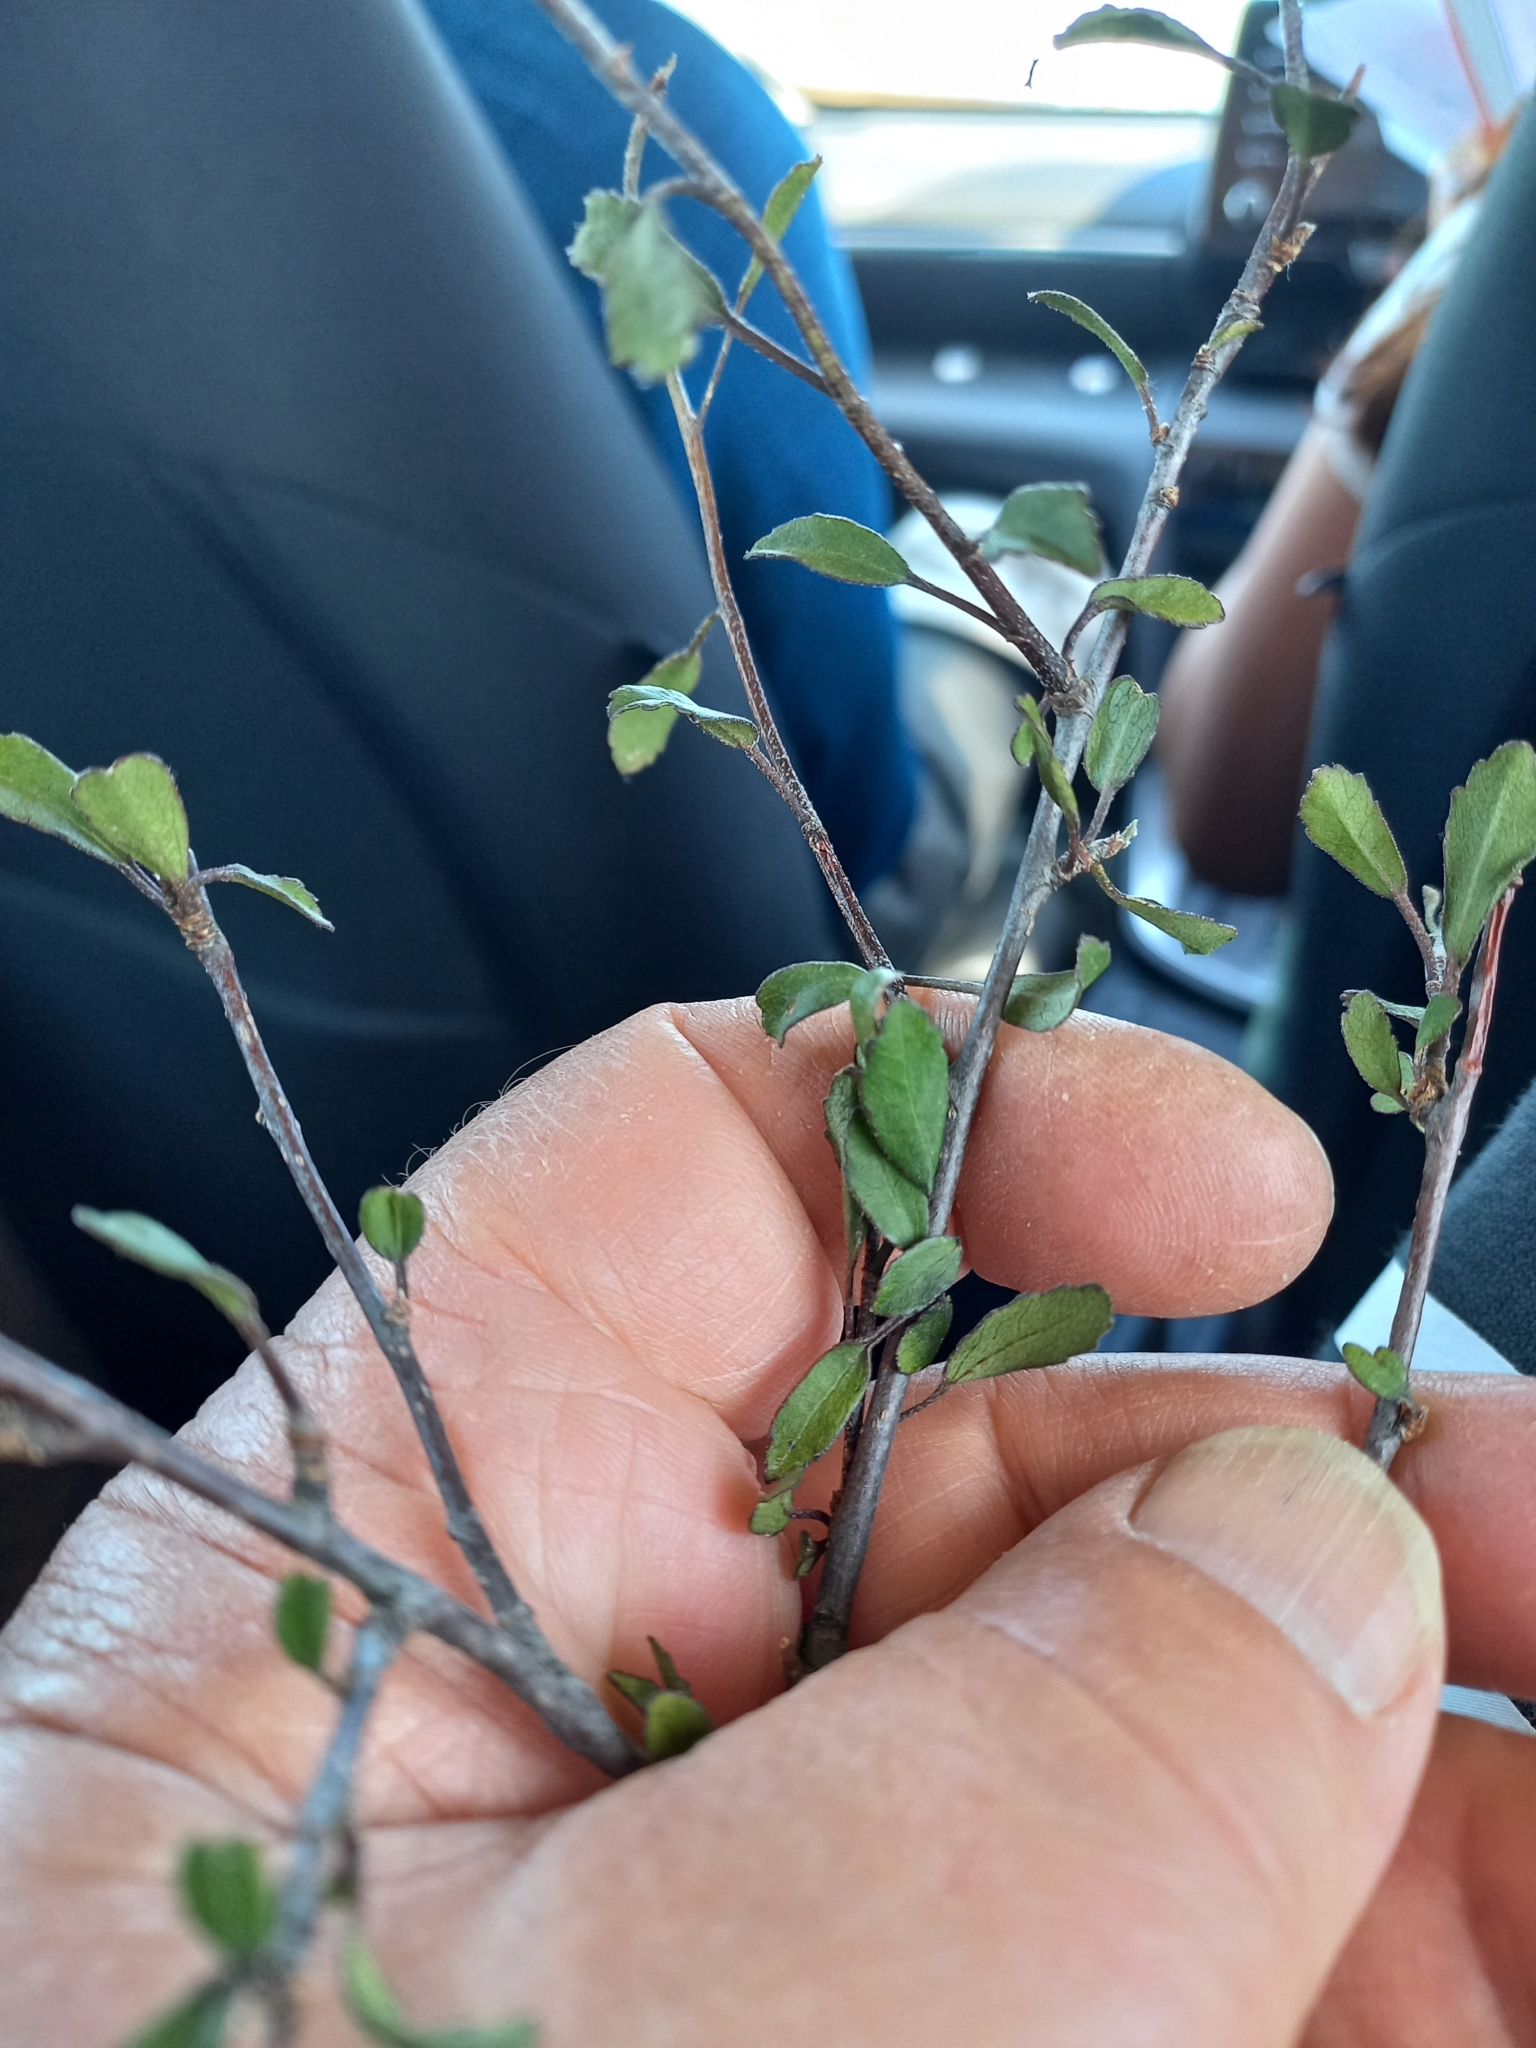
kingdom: Plantae
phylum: Tracheophyta
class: Magnoliopsida
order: Malvales
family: Malvaceae
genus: Plagianthus
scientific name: Plagianthus cymosus
